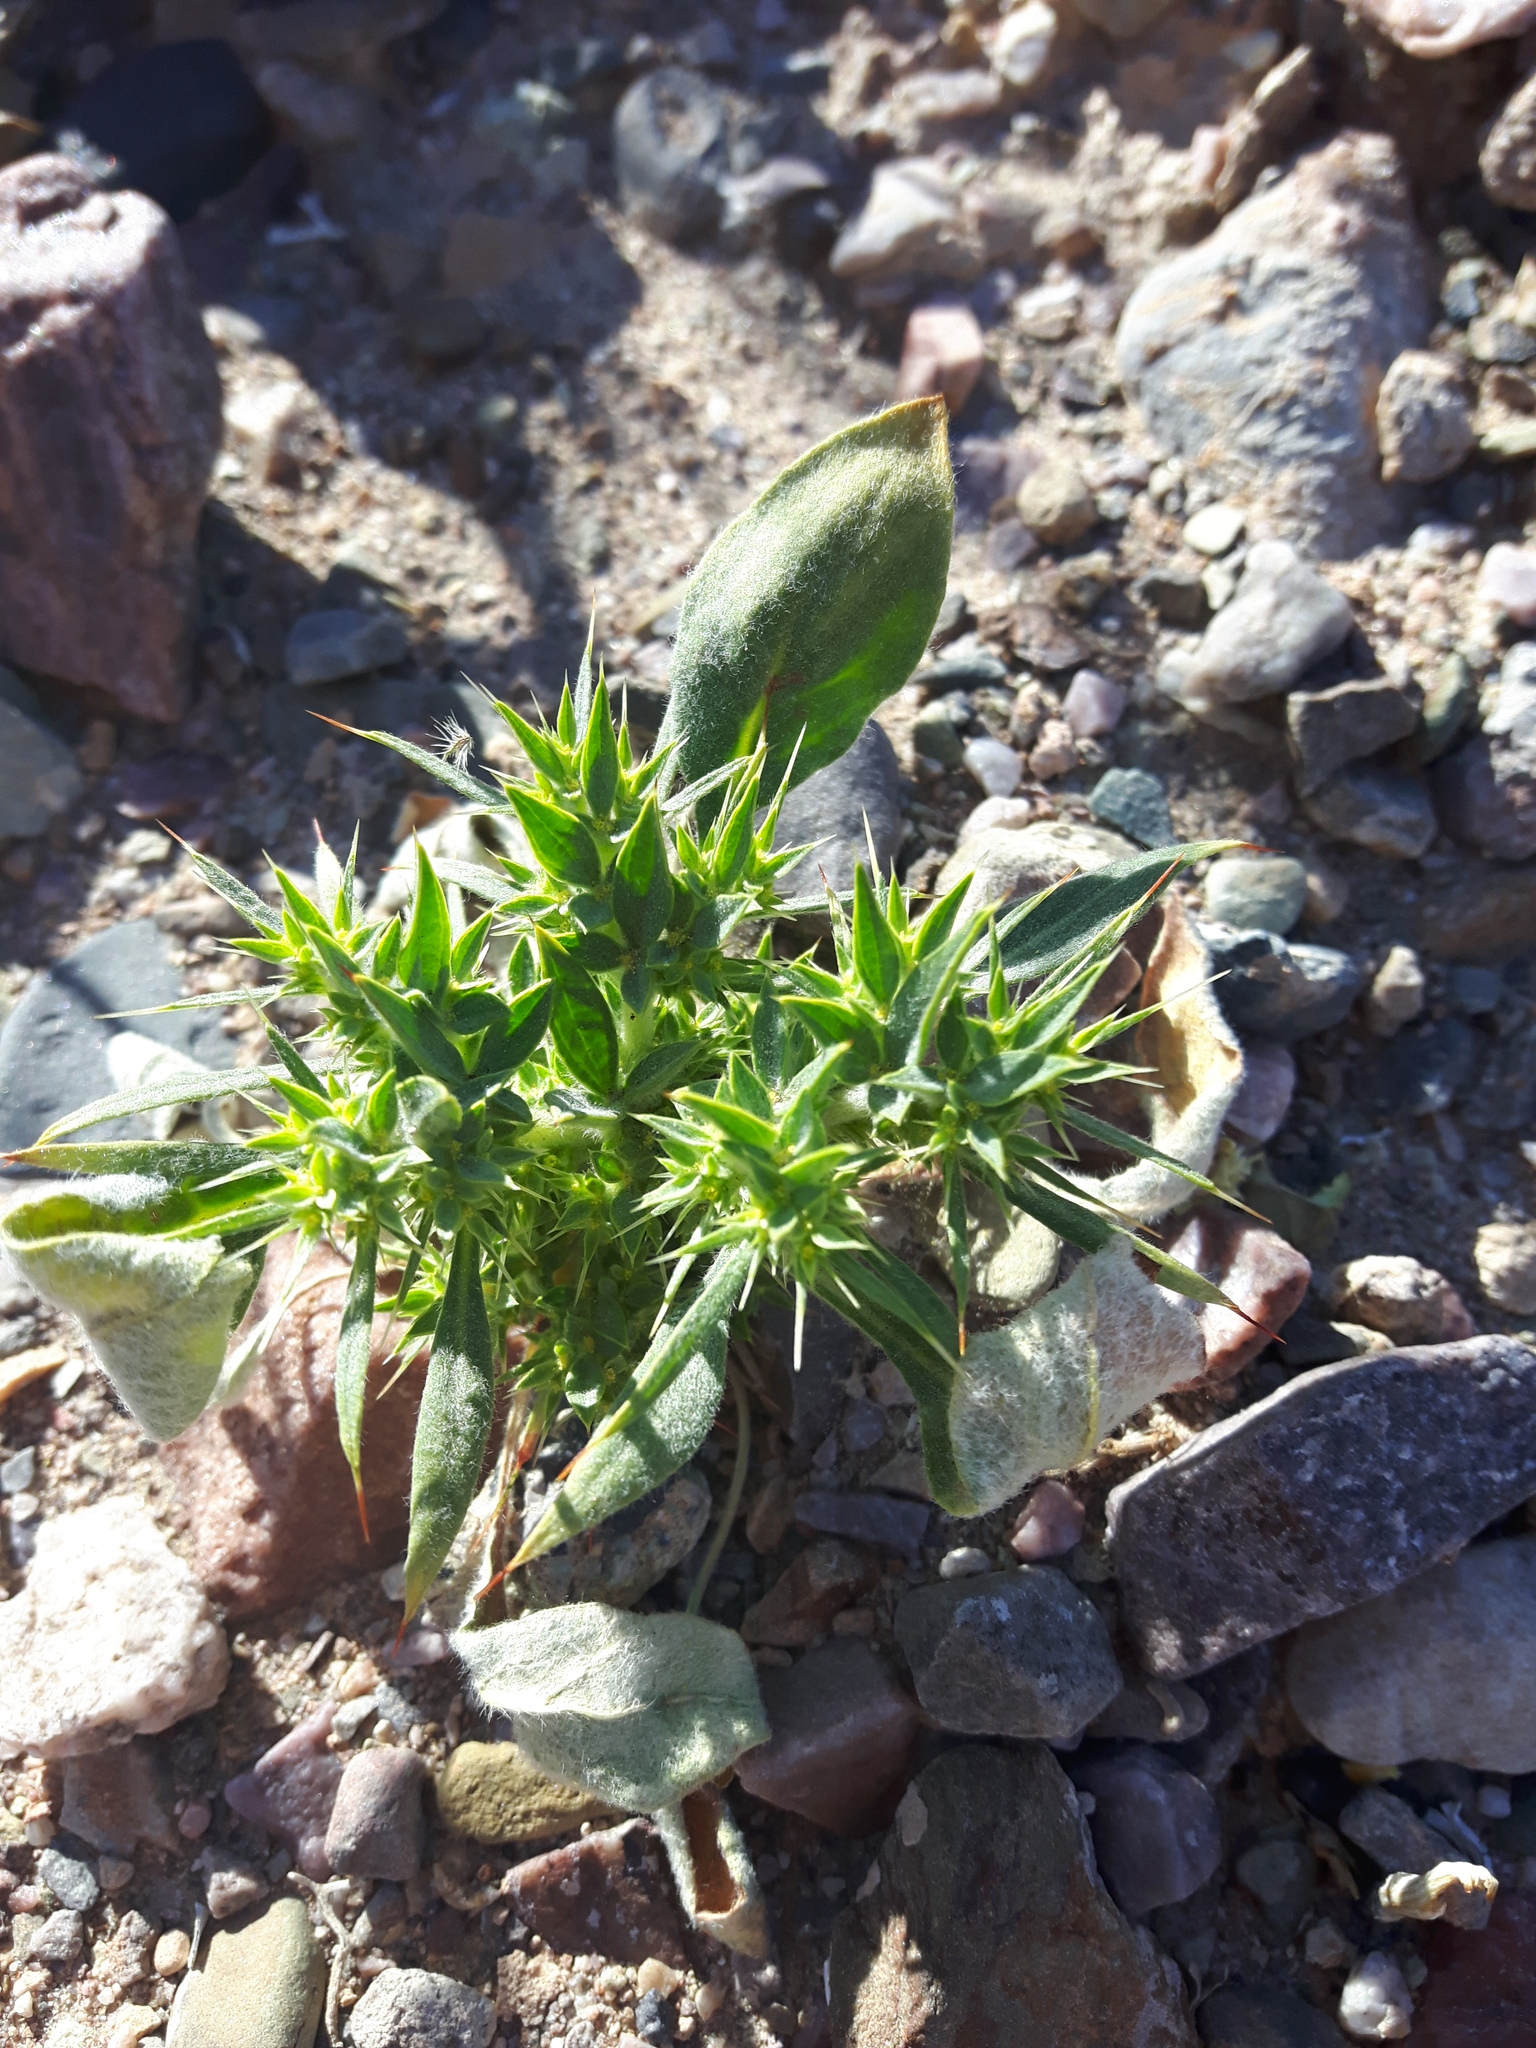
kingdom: Plantae
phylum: Tracheophyta
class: Magnoliopsida
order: Caryophyllales
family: Polygonaceae
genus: Chorizanthe
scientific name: Chorizanthe rigida
